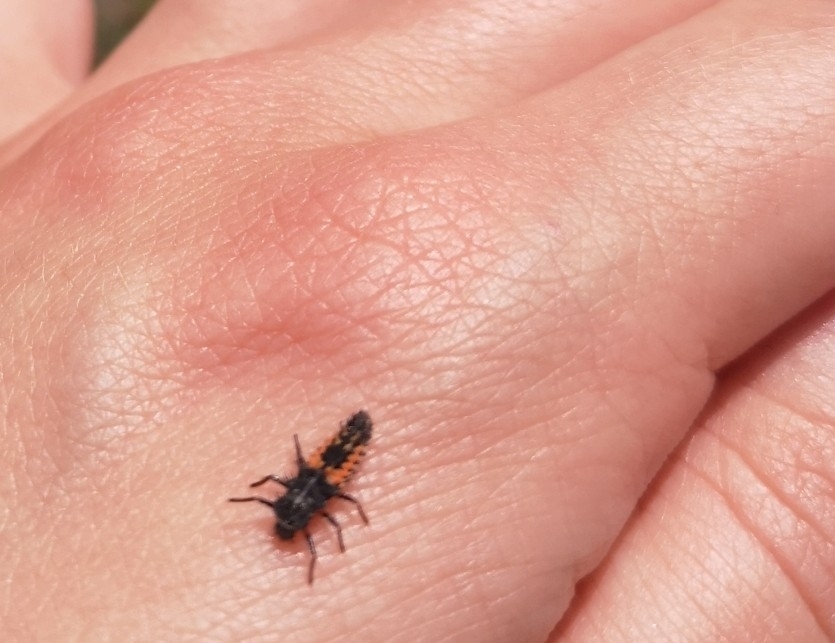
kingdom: Animalia
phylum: Arthropoda
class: Insecta
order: Coleoptera
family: Coccinellidae
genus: Harmonia
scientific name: Harmonia axyridis
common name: Harlequin ladybird
